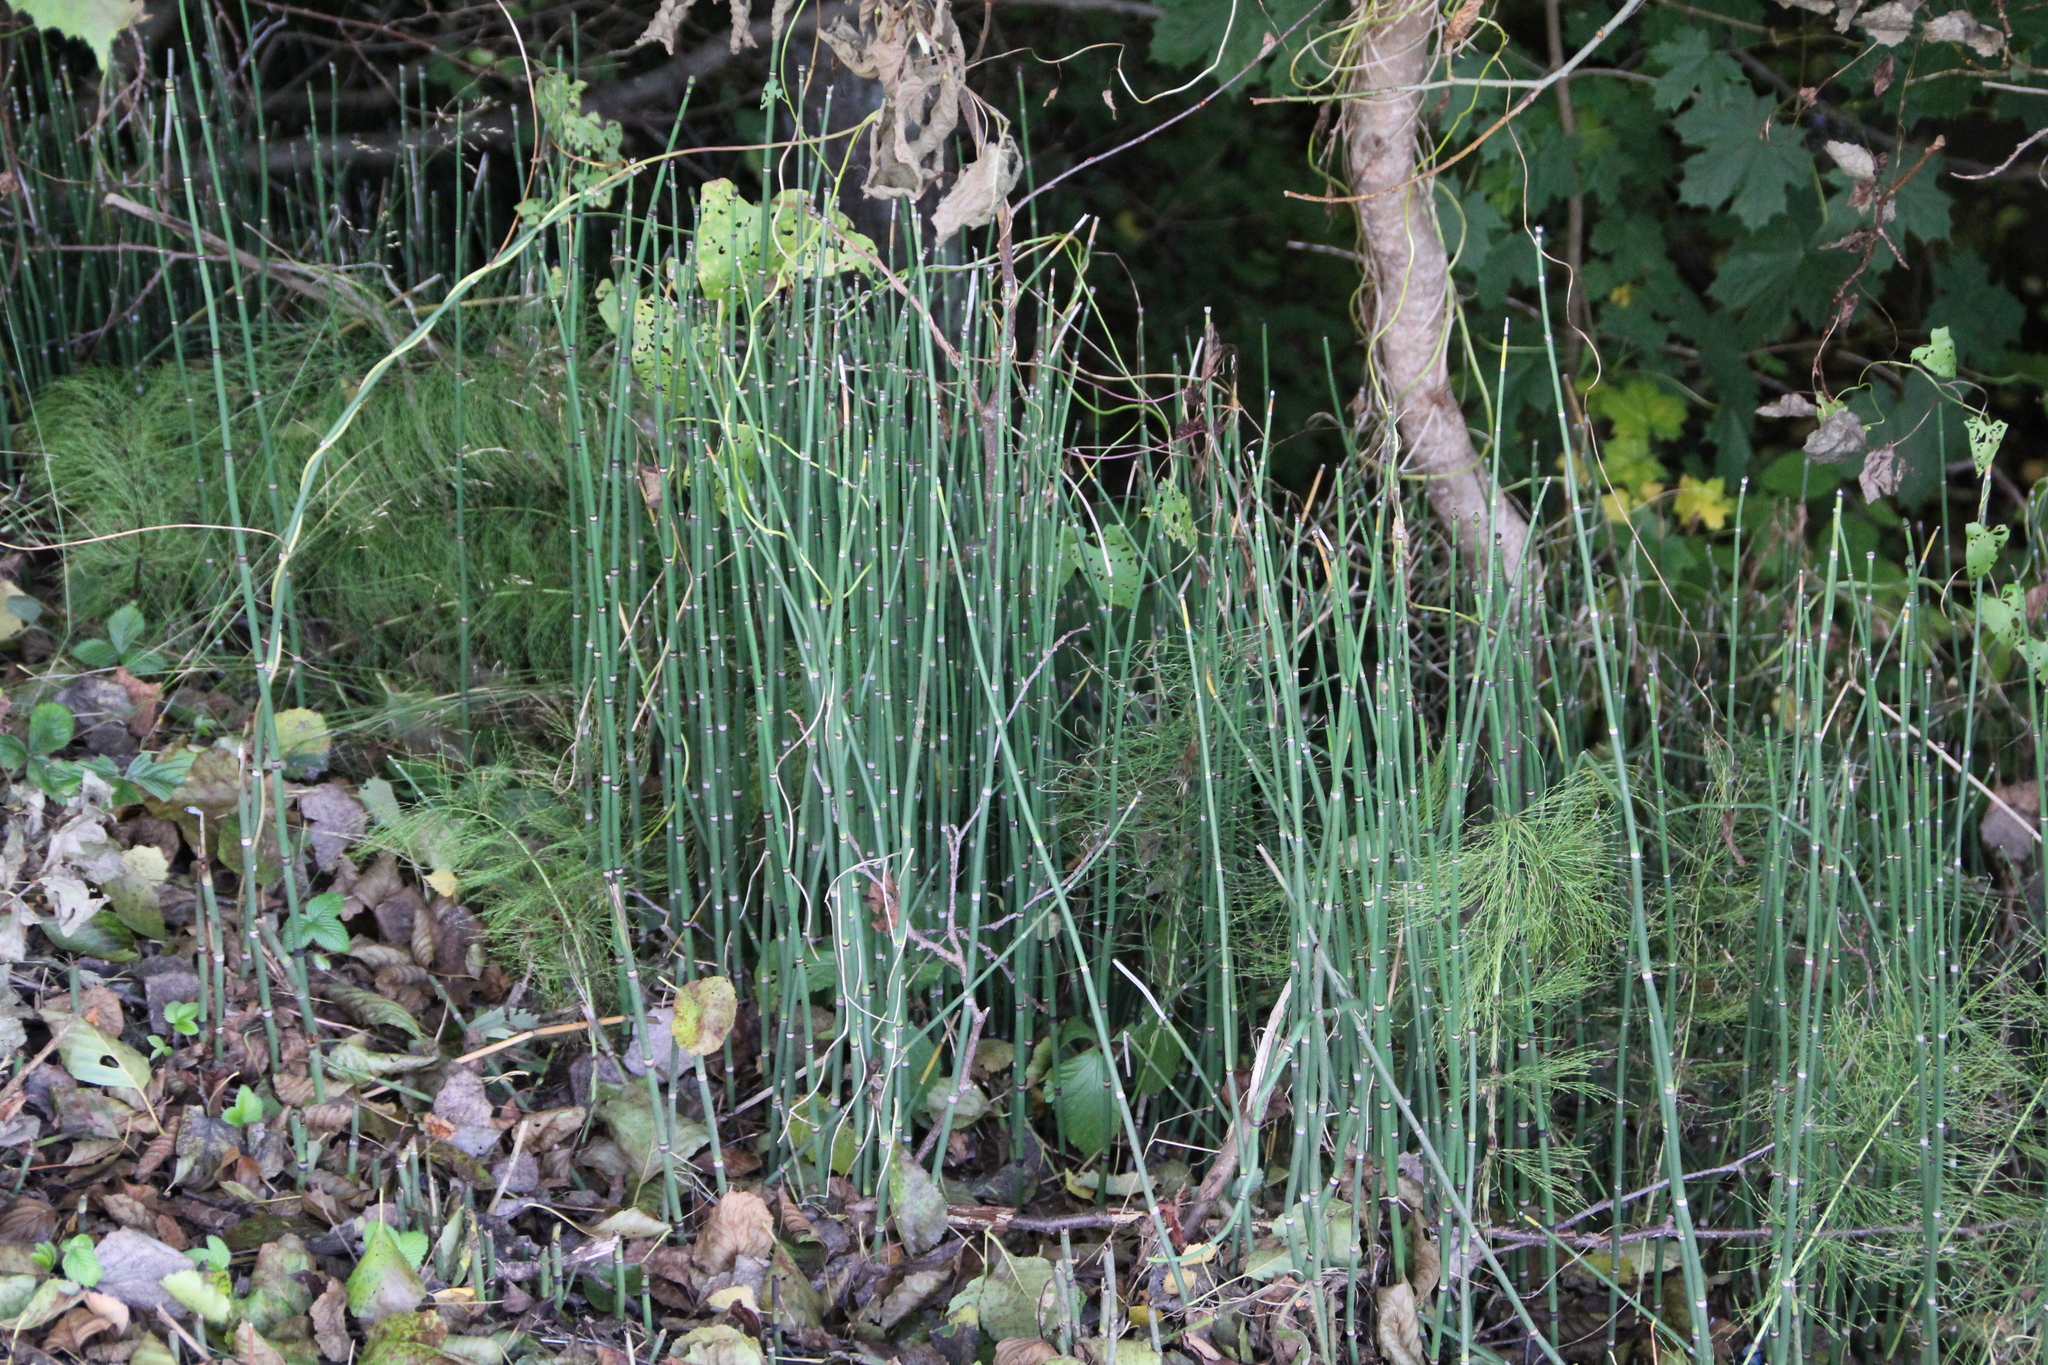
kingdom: Plantae
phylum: Tracheophyta
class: Polypodiopsida
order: Equisetales
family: Equisetaceae
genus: Equisetum
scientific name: Equisetum hyemale
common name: Rough horsetail
